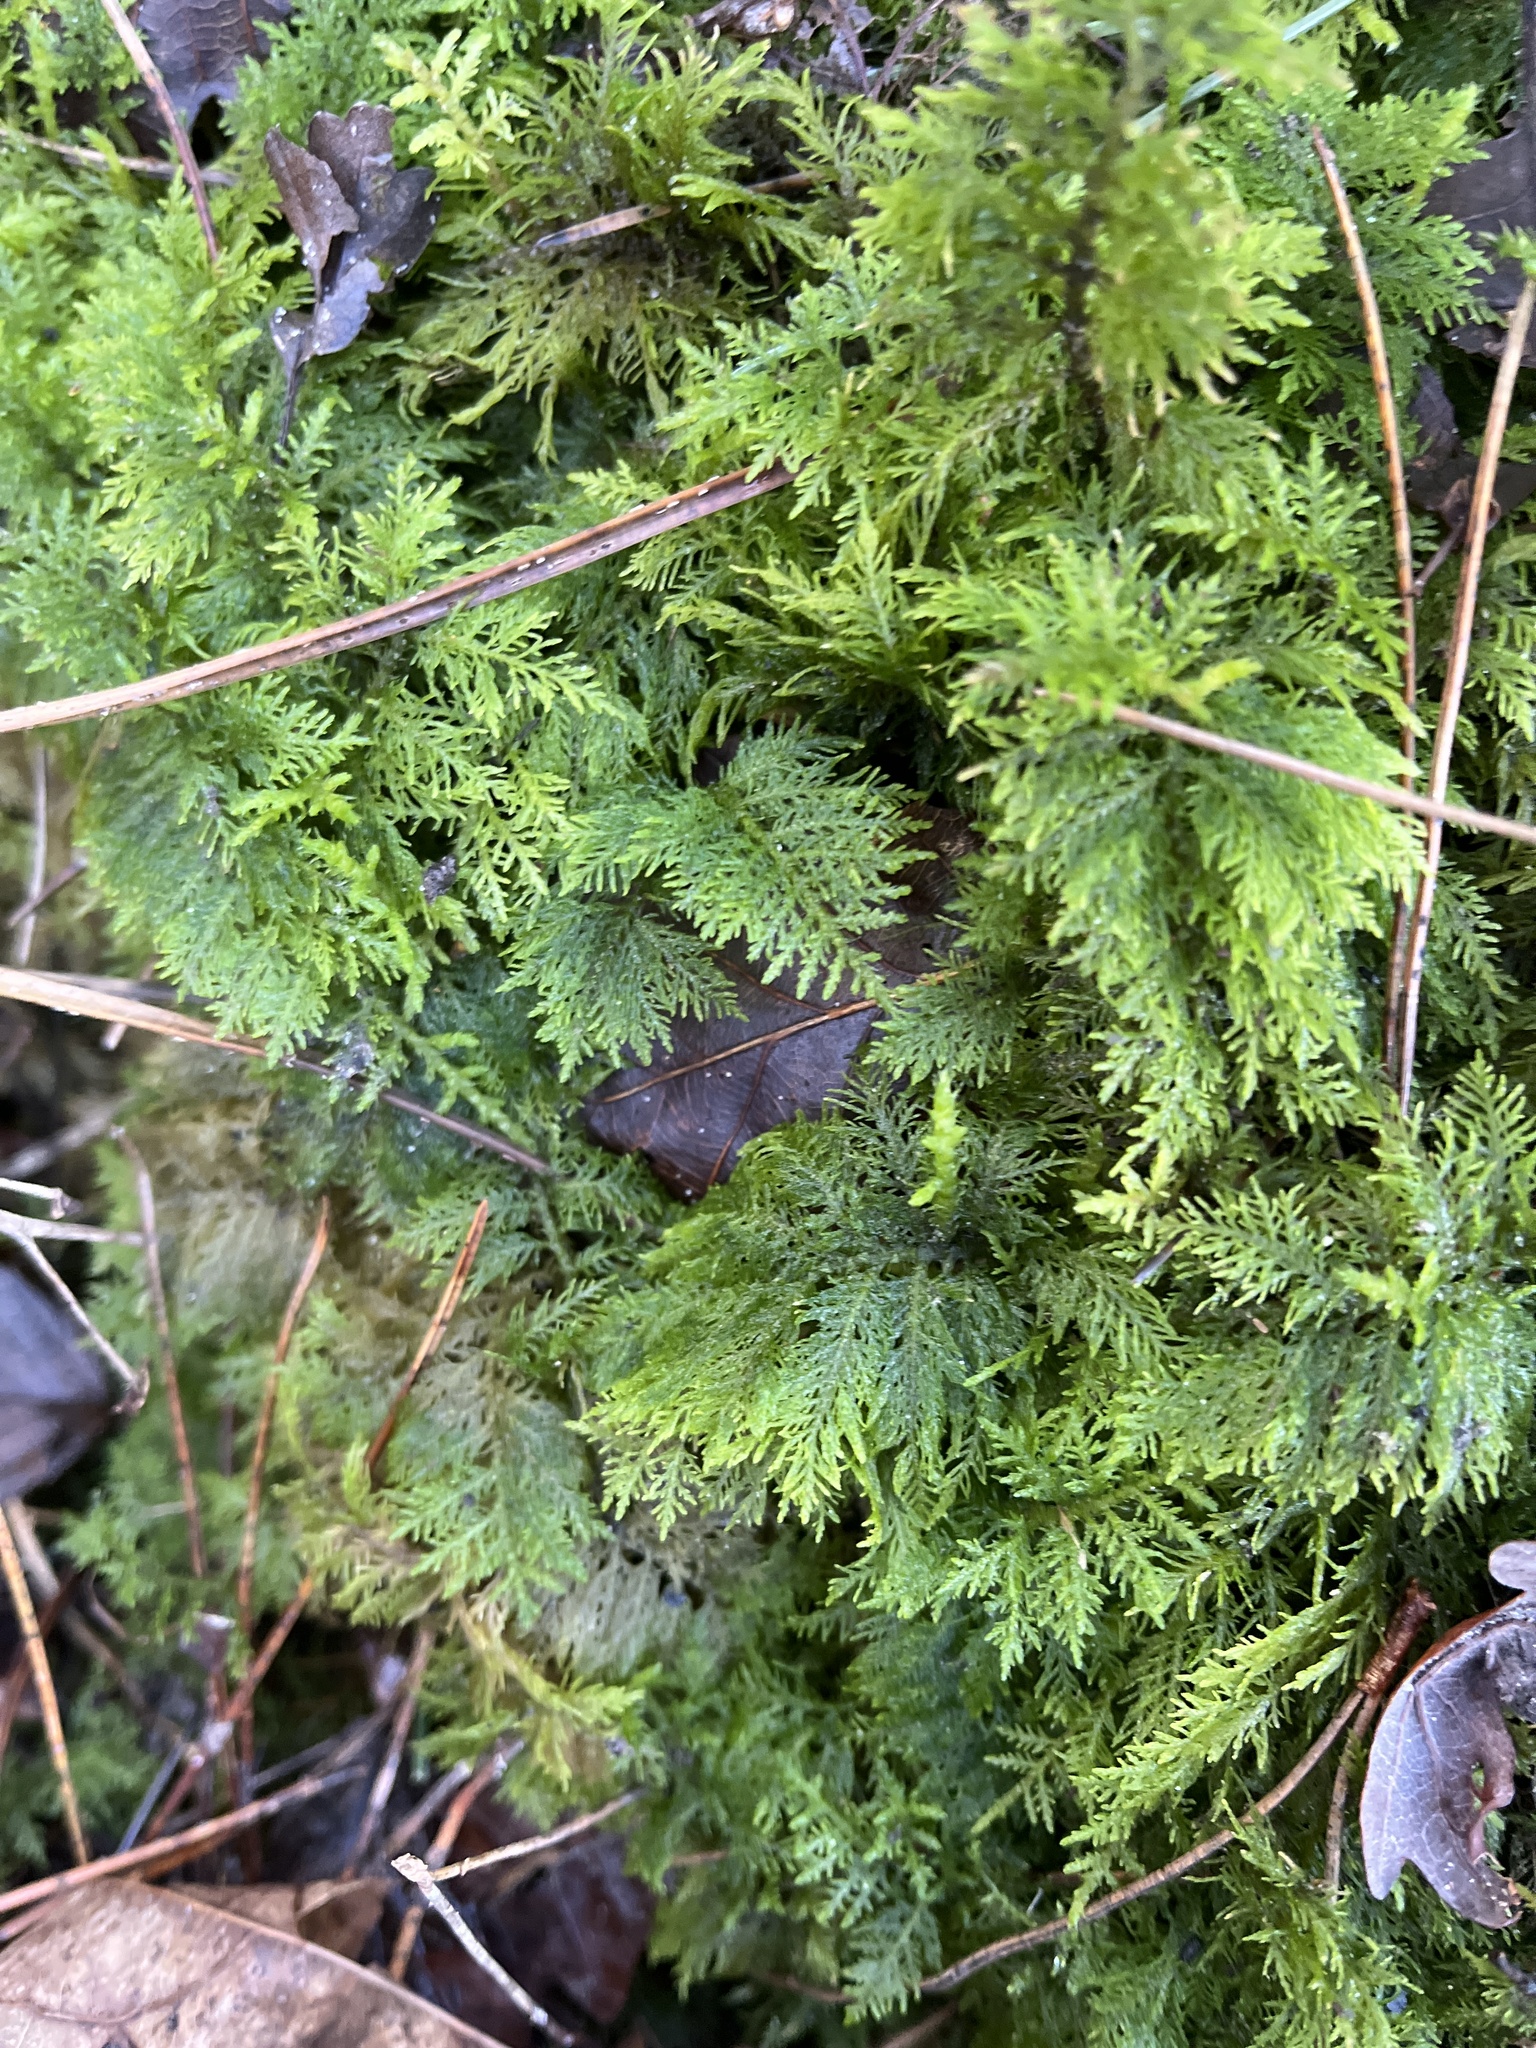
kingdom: Plantae
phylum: Bryophyta
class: Bryopsida
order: Hypnales
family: Thuidiaceae
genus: Thuidium
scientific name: Thuidium tamariscinum
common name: Common tamarisk-moss
